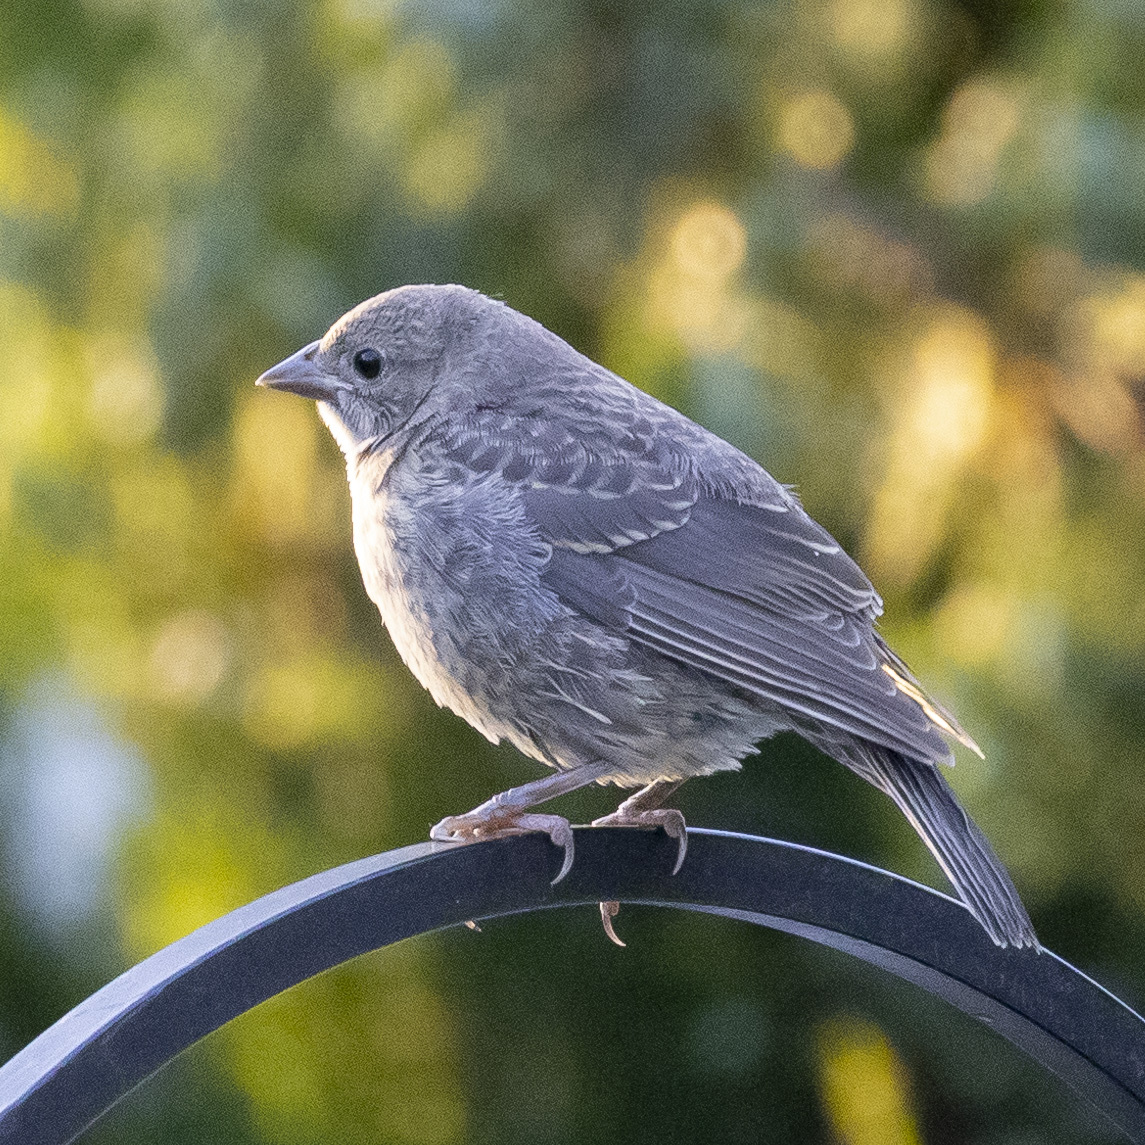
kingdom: Animalia
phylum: Chordata
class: Aves
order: Passeriformes
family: Icteridae
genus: Molothrus
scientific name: Molothrus ater
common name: Brown-headed cowbird
